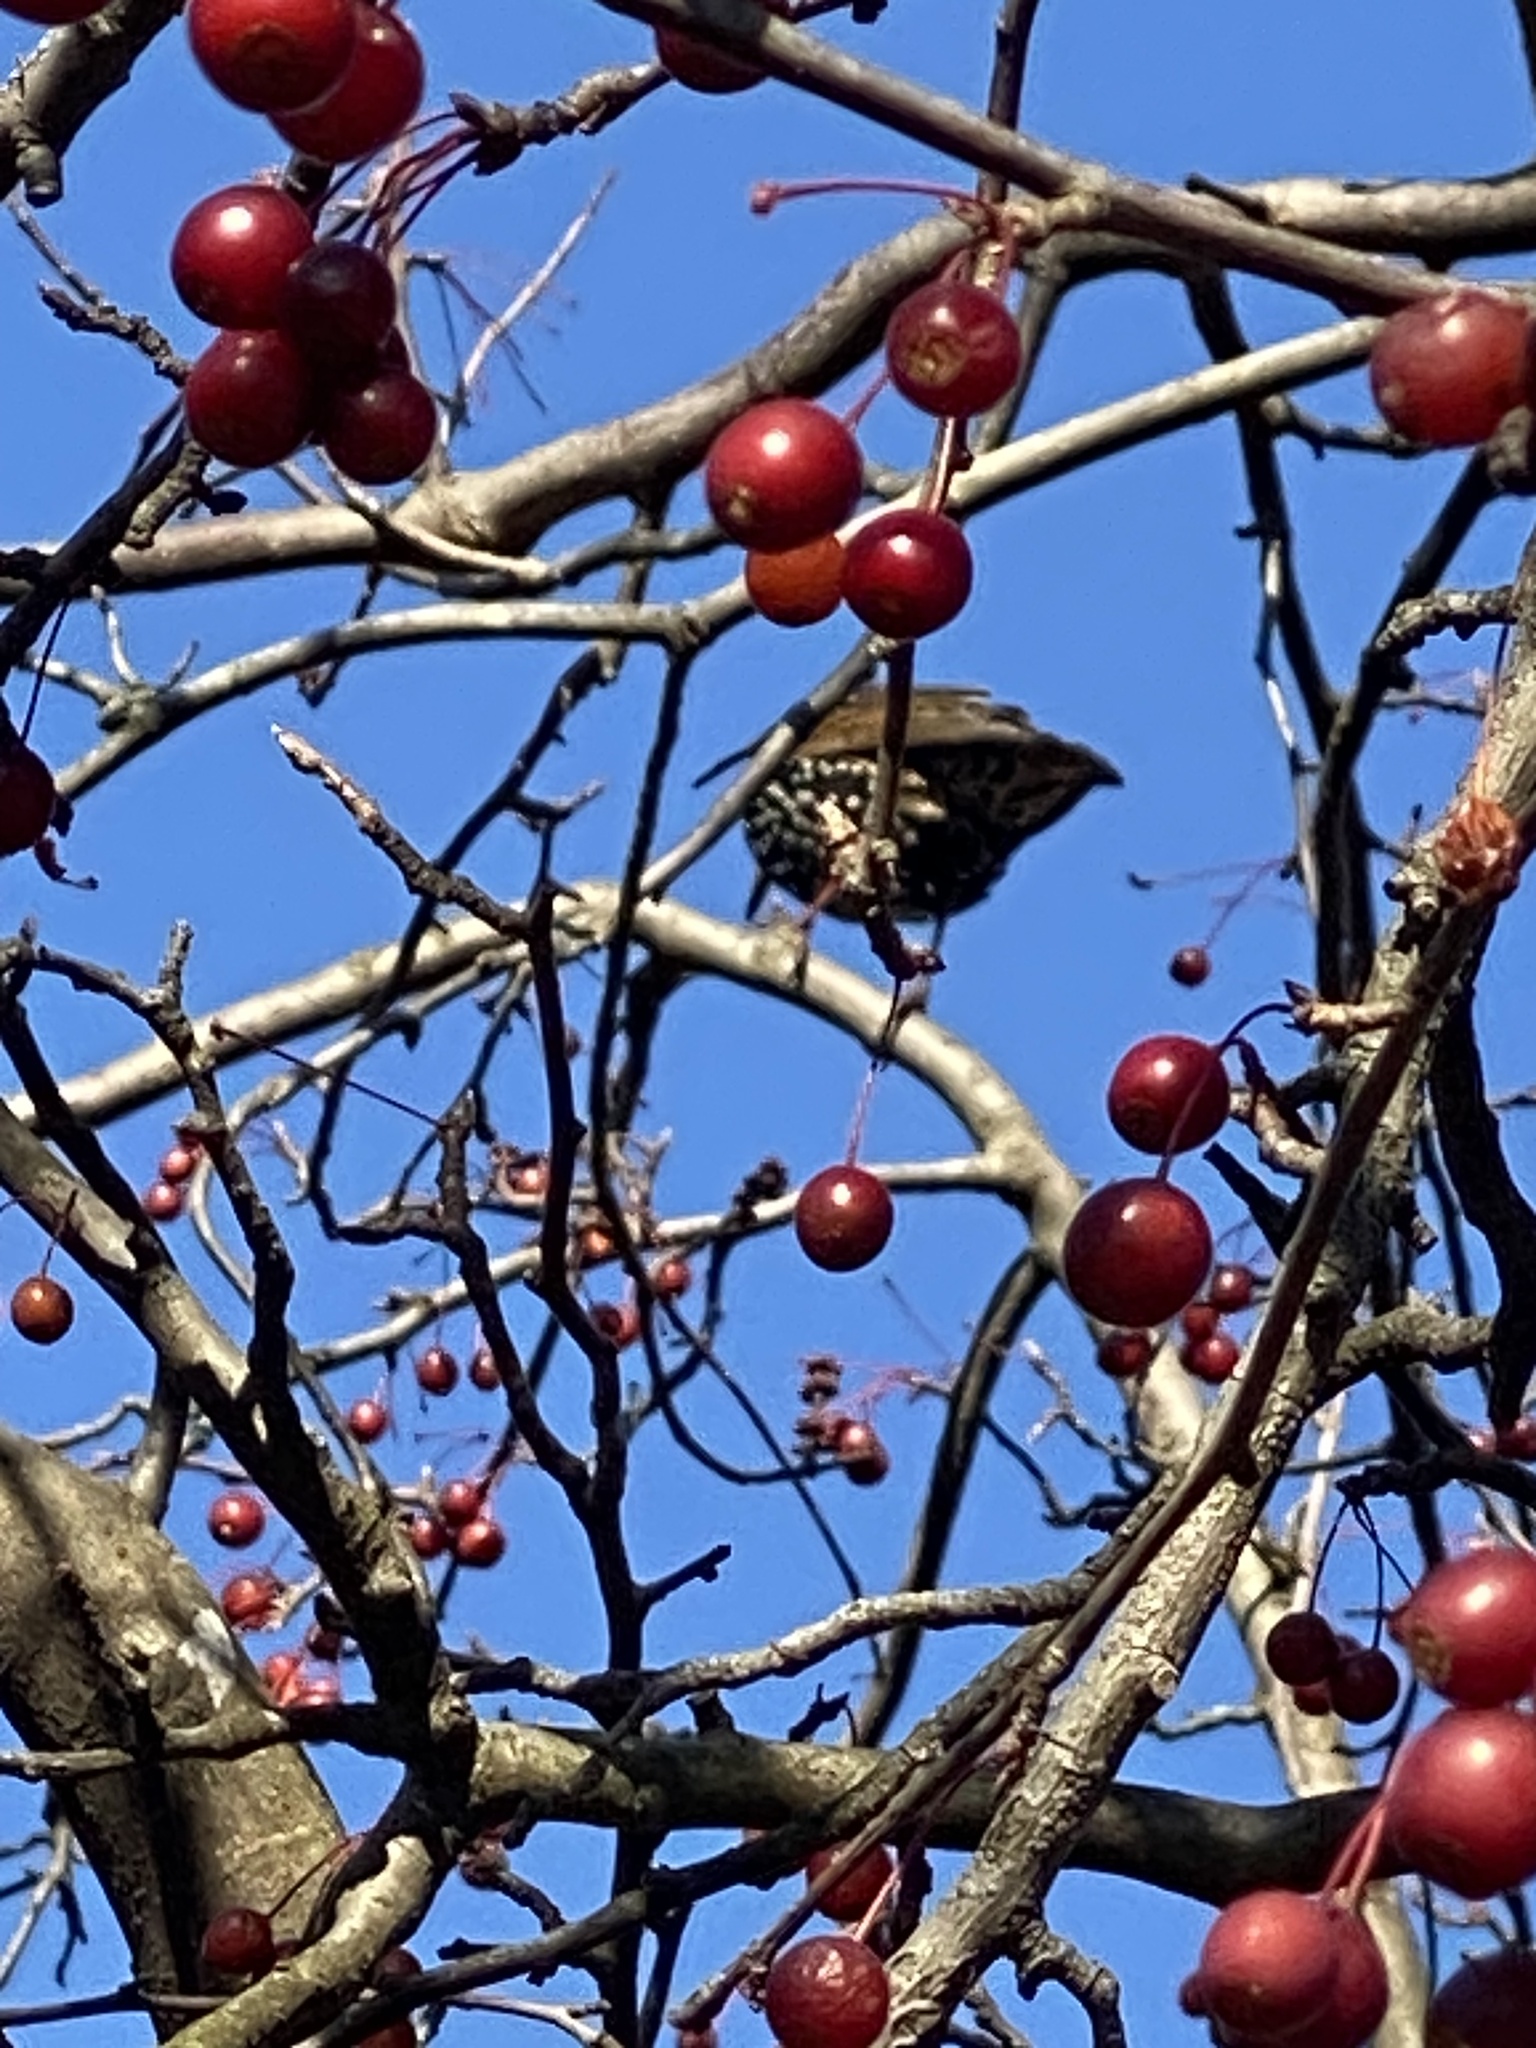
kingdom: Animalia
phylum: Chordata
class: Aves
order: Passeriformes
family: Sturnidae
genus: Sturnus
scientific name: Sturnus vulgaris
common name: Common starling
